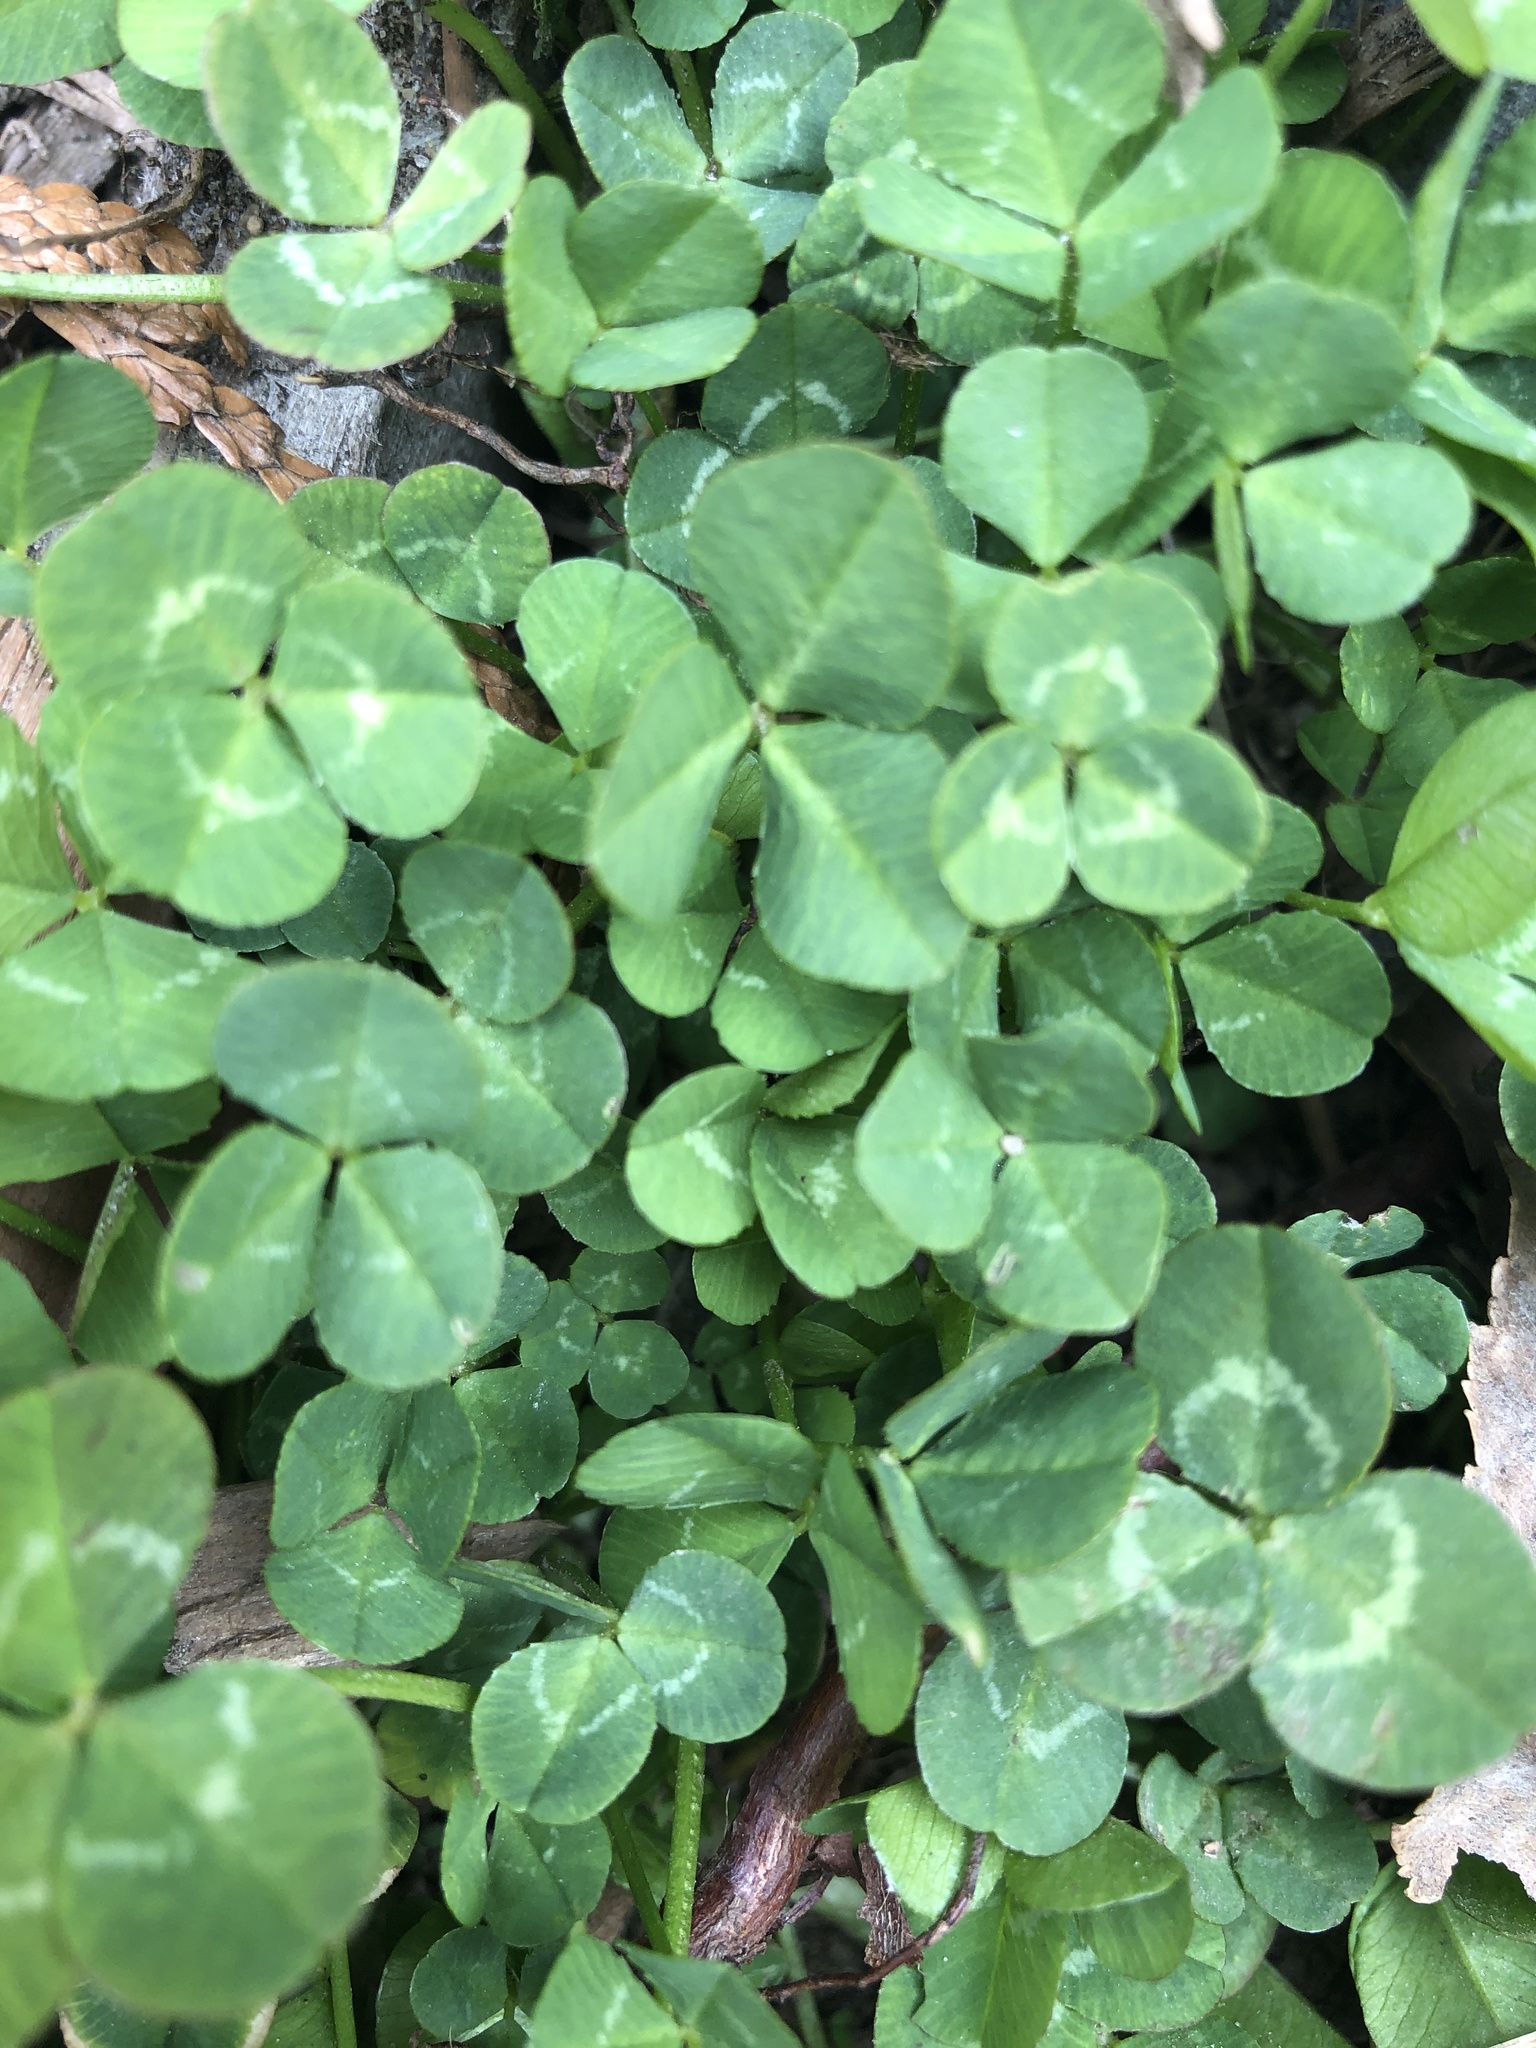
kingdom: Plantae
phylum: Tracheophyta
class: Magnoliopsida
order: Fabales
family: Fabaceae
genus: Trifolium
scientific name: Trifolium repens
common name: White clover
